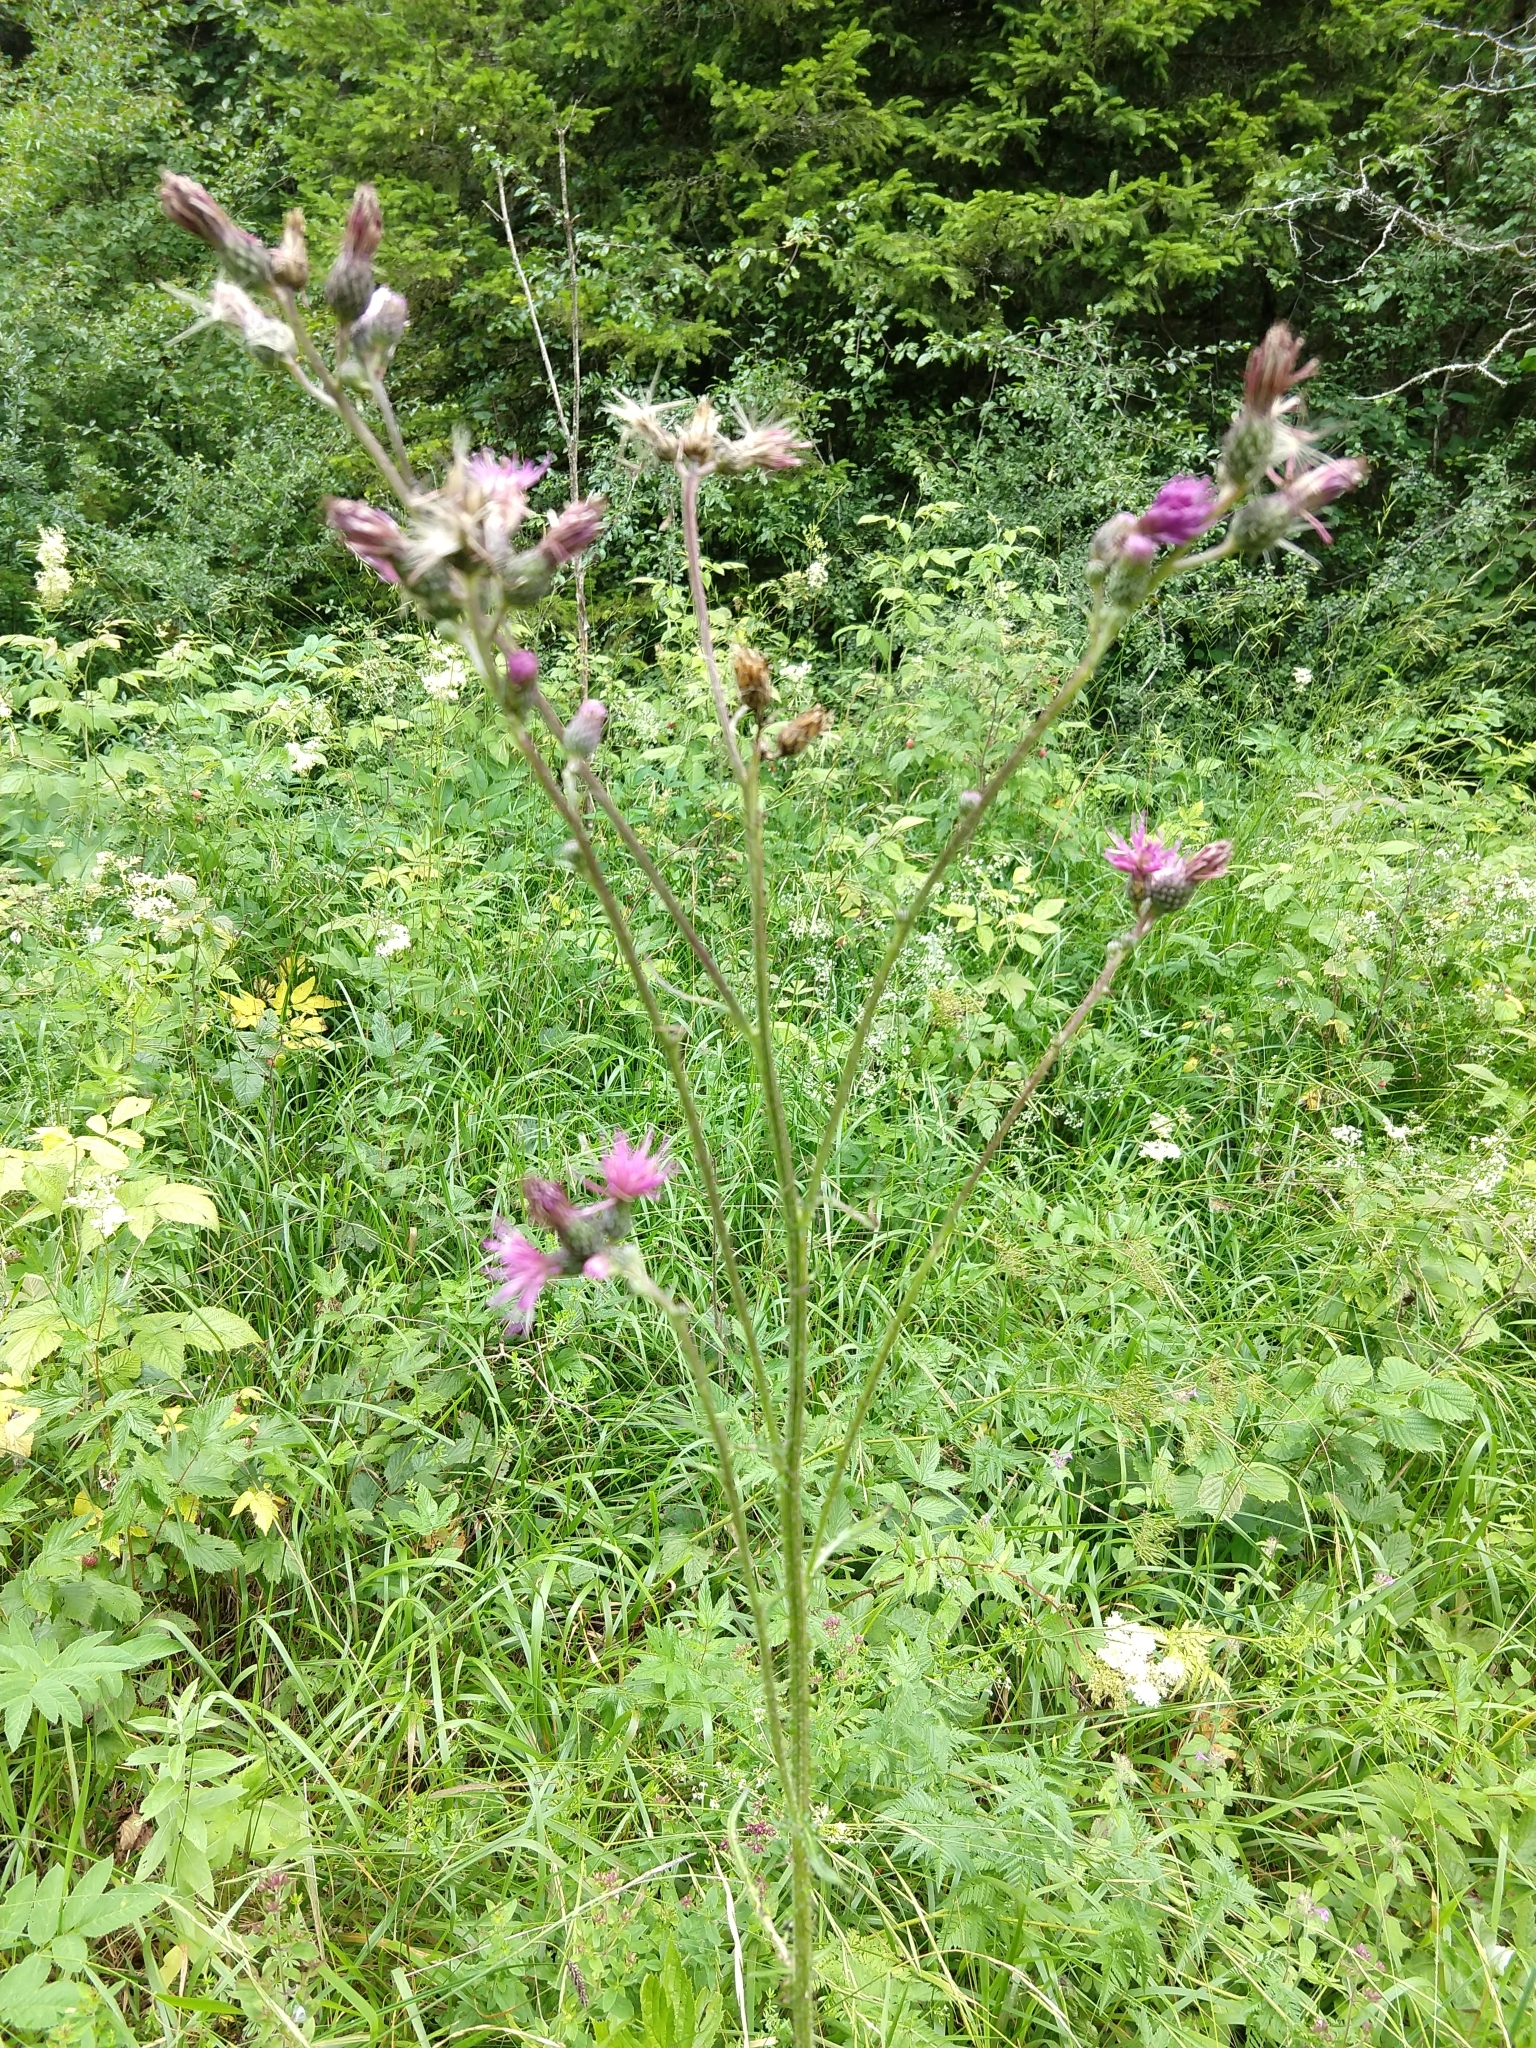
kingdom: Plantae
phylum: Tracheophyta
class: Magnoliopsida
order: Asterales
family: Asteraceae
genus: Cirsium
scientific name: Cirsium palustre
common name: Marsh thistle
